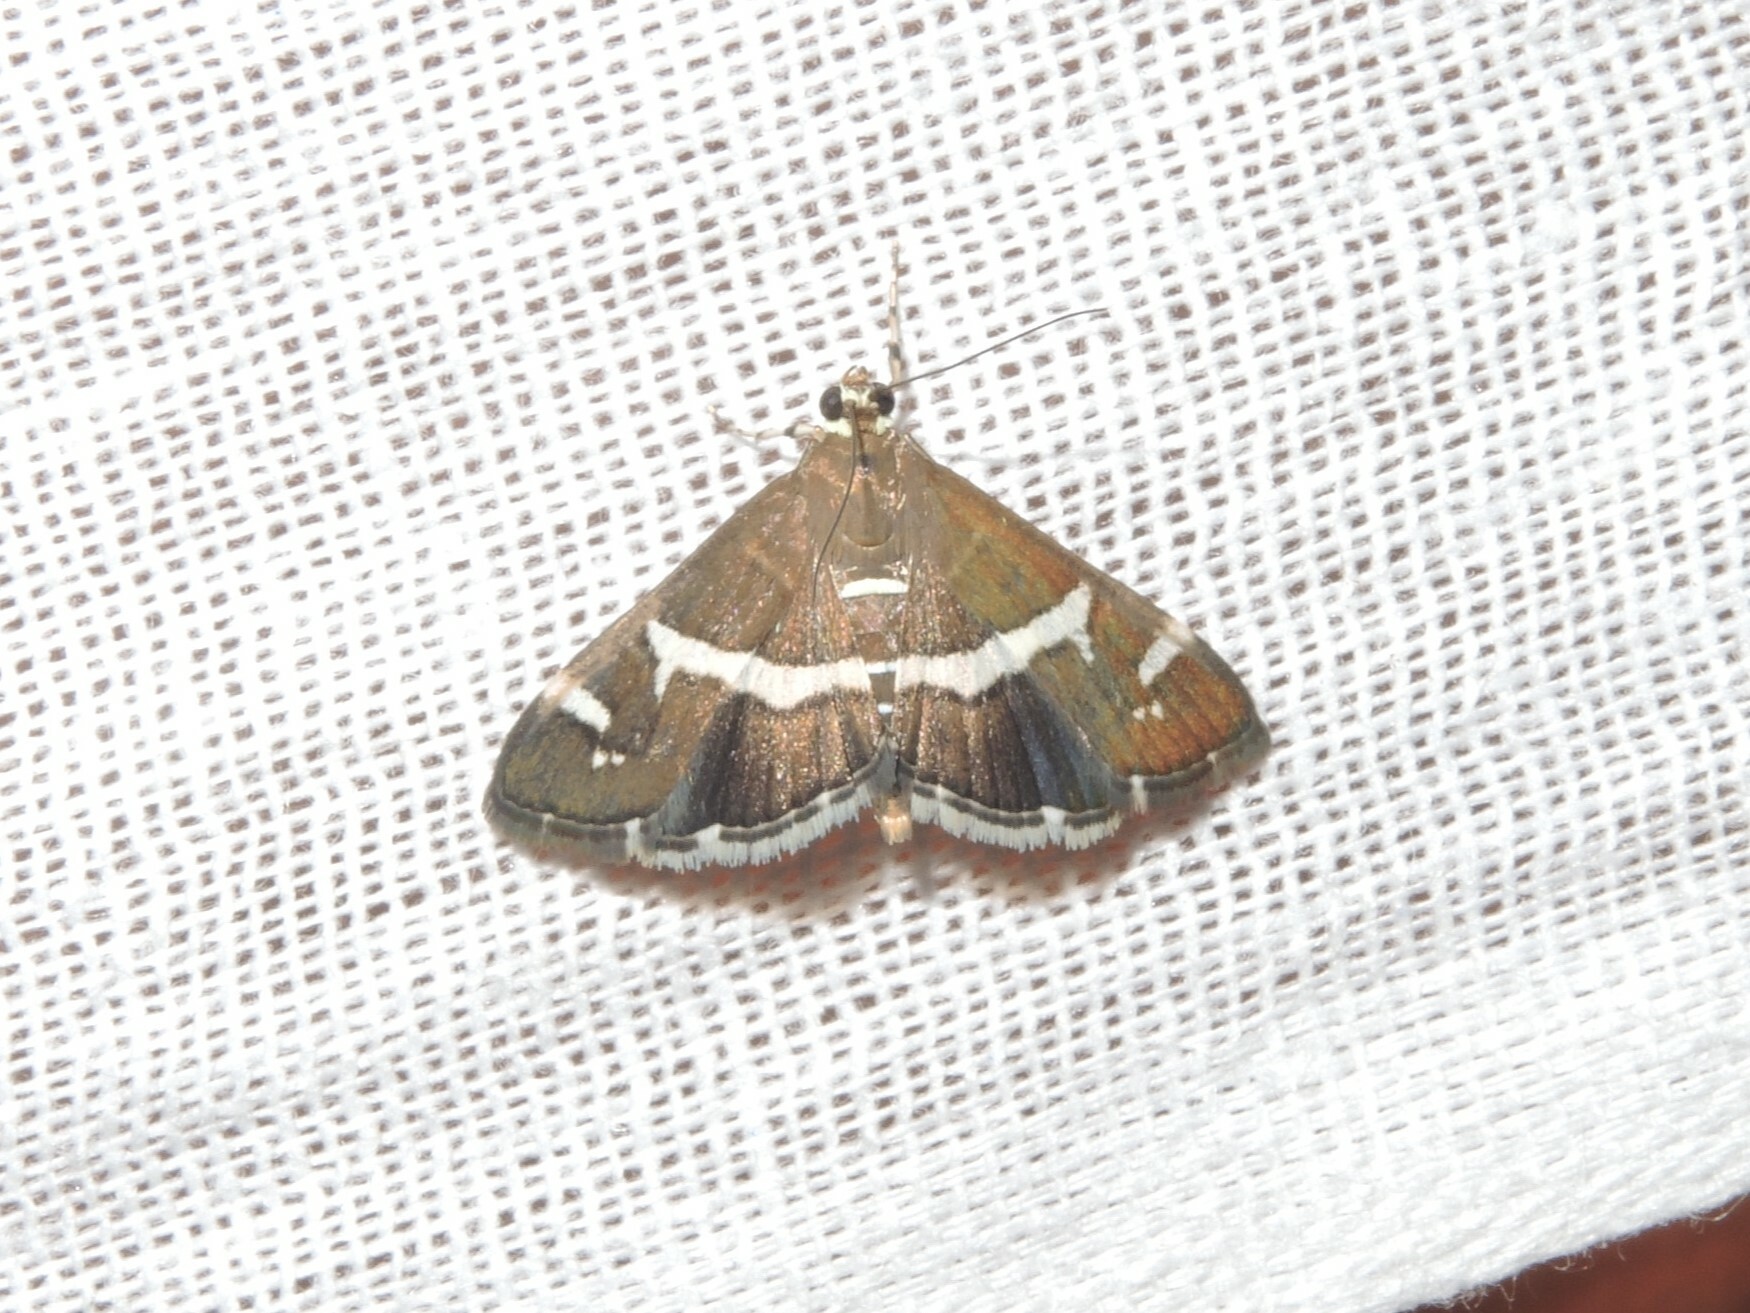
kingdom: Animalia
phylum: Arthropoda
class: Insecta
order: Lepidoptera
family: Crambidae
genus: Spoladea
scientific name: Spoladea recurvalis
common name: Beet webworm moth
